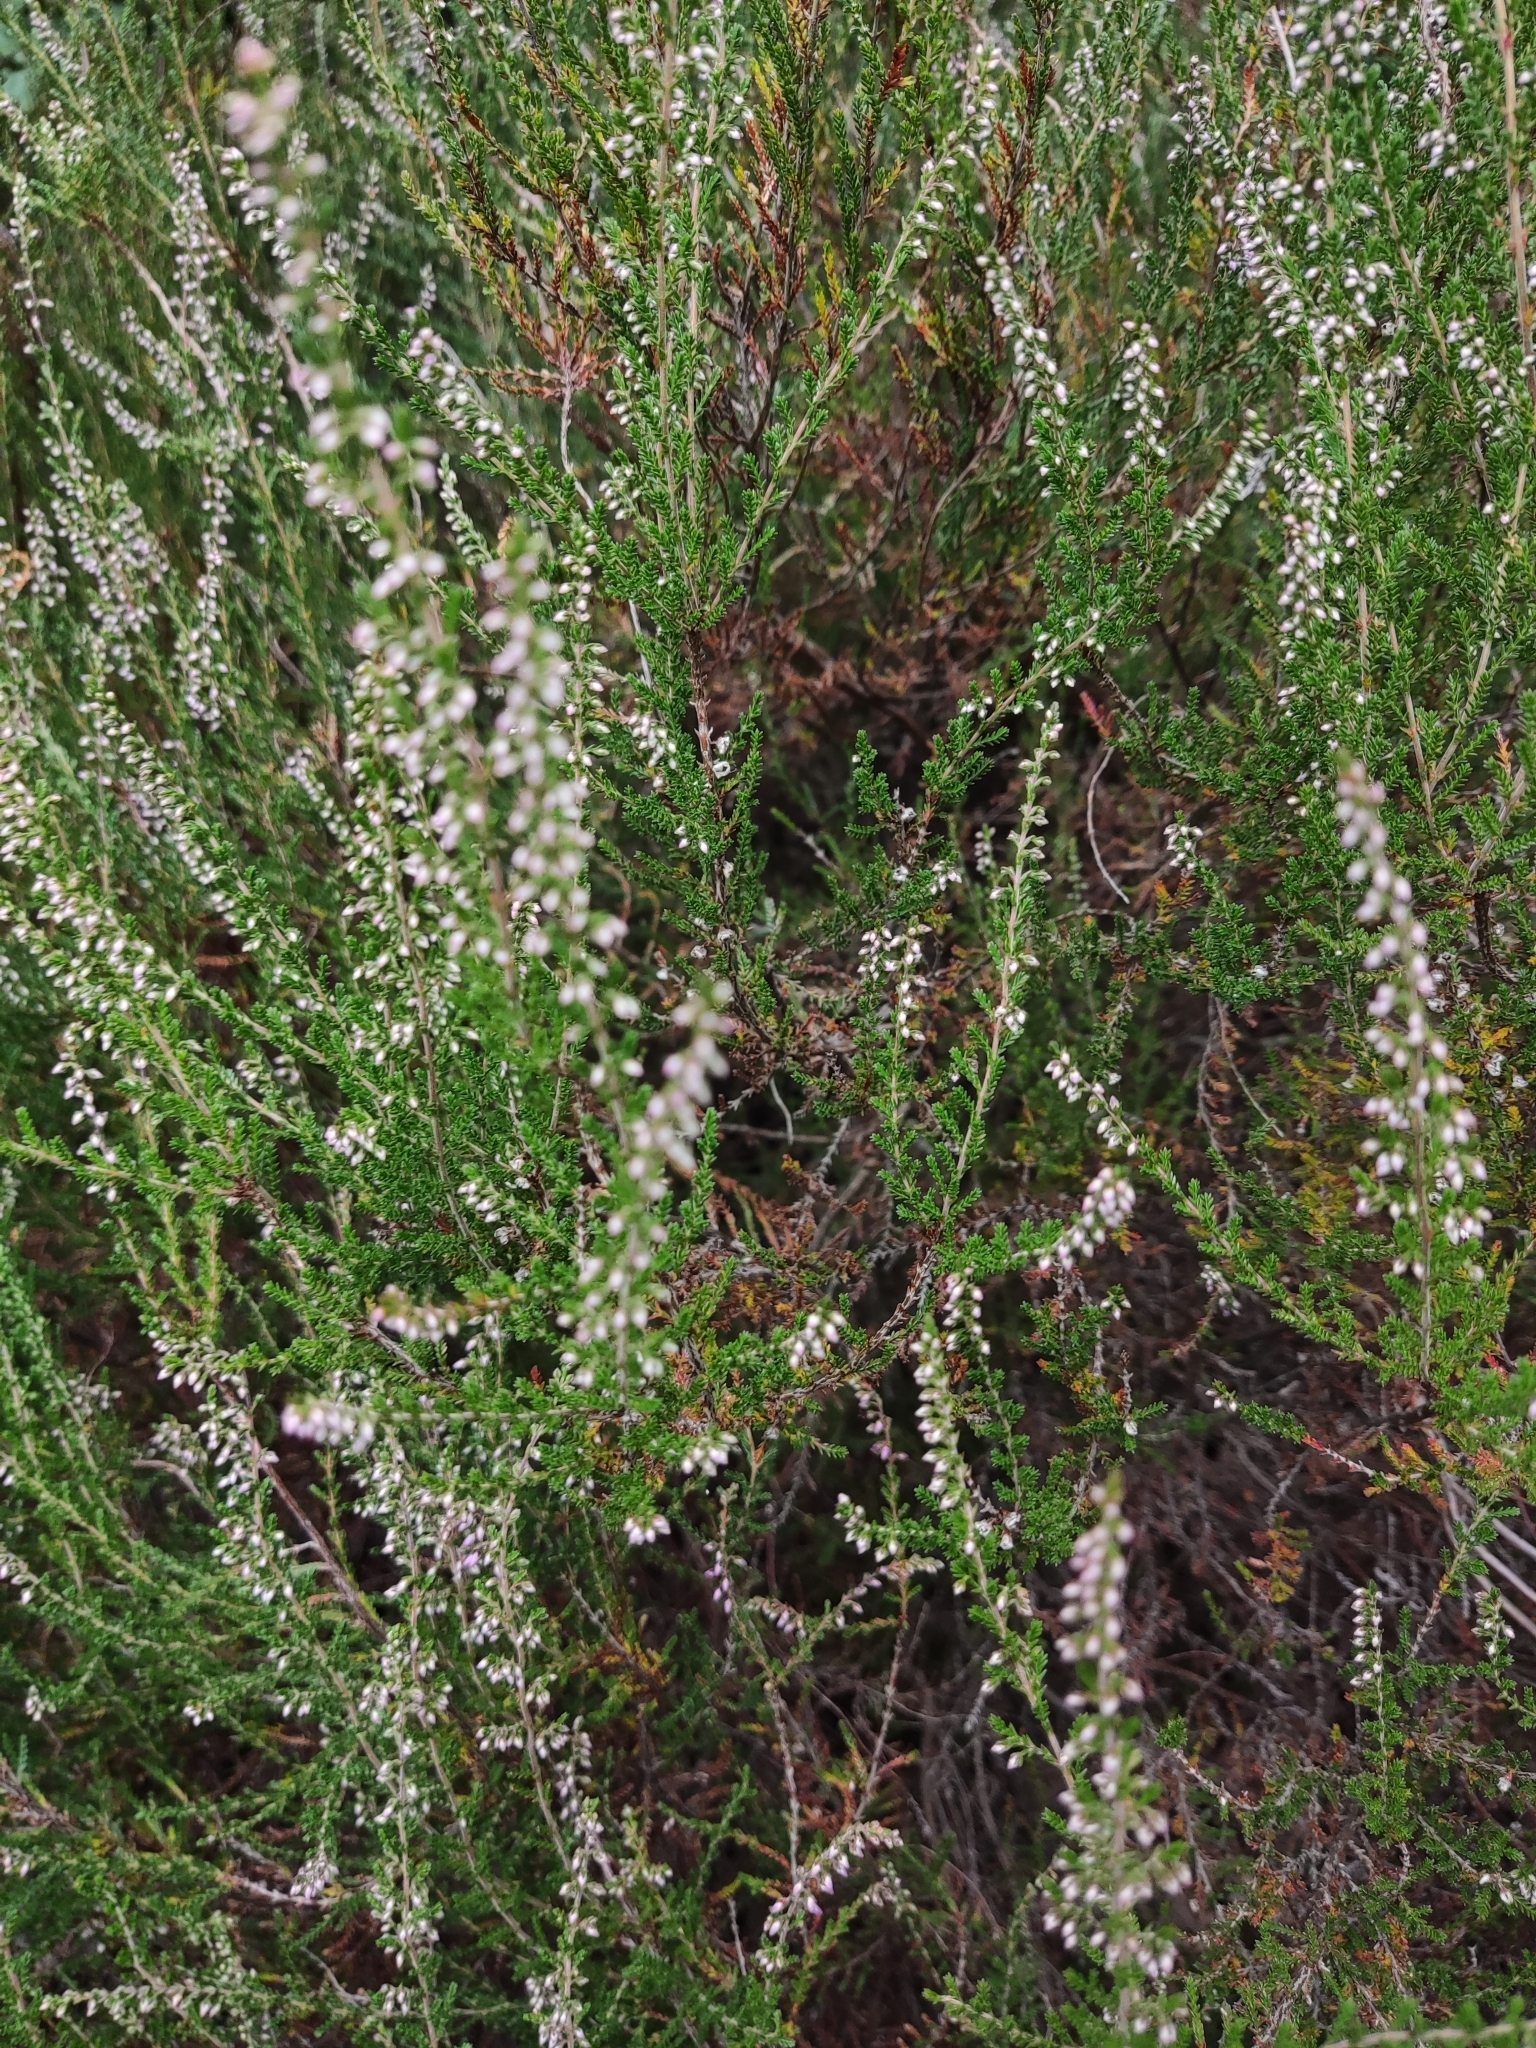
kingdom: Plantae
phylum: Tracheophyta
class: Magnoliopsida
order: Ericales
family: Ericaceae
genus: Calluna
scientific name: Calluna vulgaris
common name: Heather
